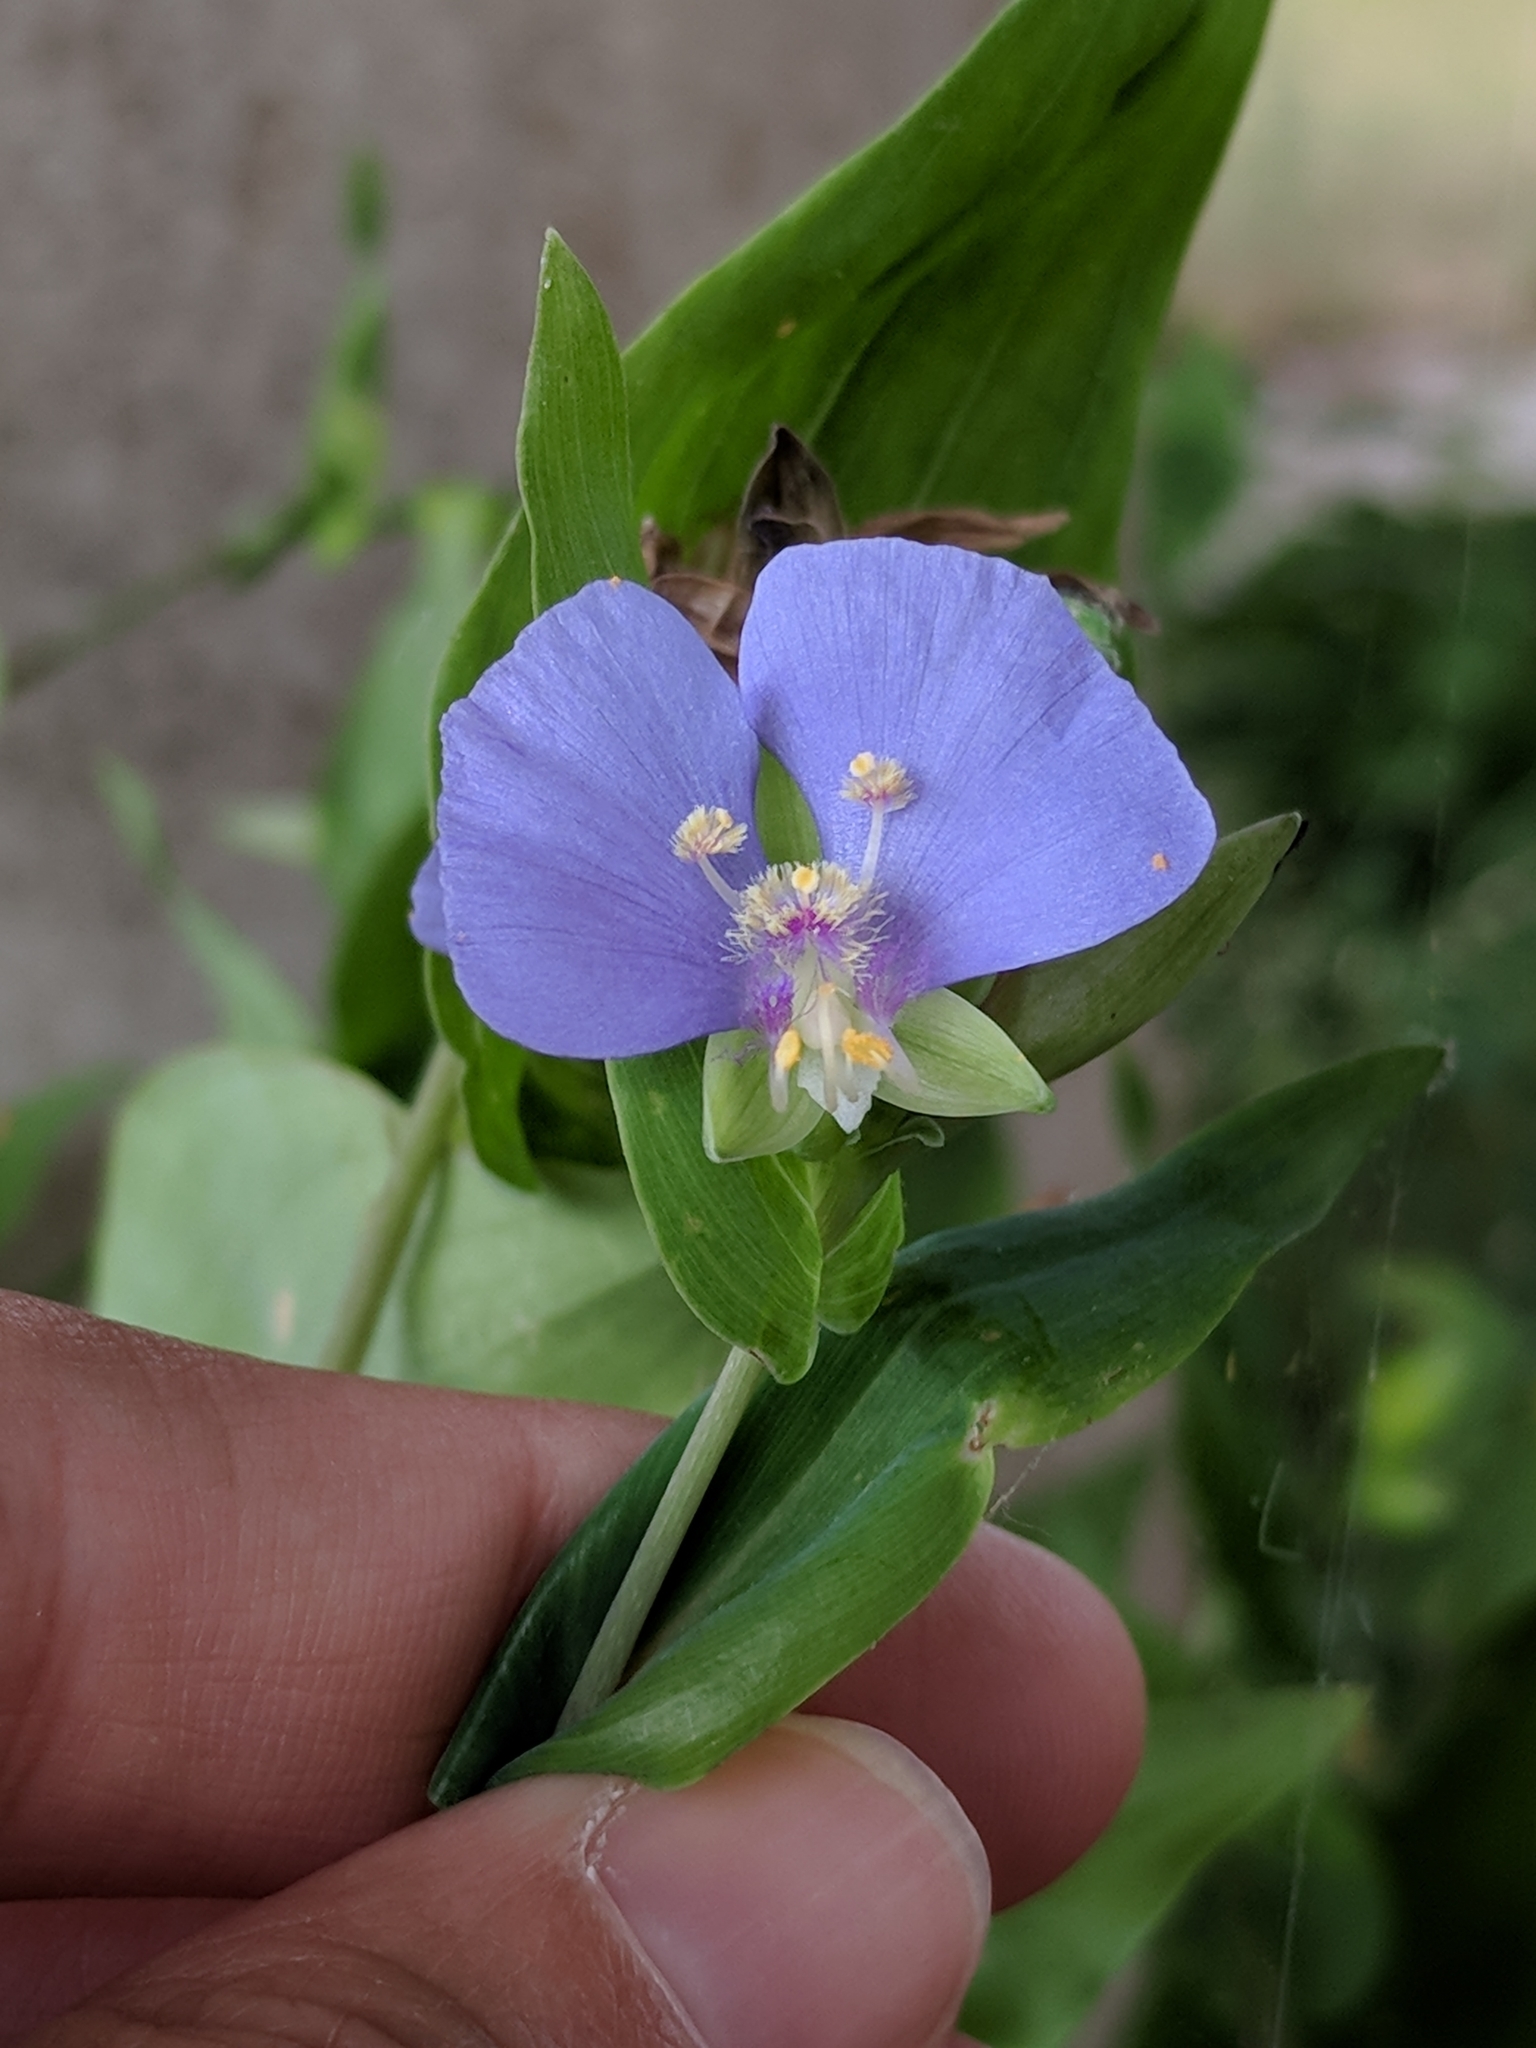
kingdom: Plantae
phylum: Tracheophyta
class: Liliopsida
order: Commelinales
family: Commelinaceae
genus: Tinantia
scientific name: Tinantia anomala
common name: False dayflower
